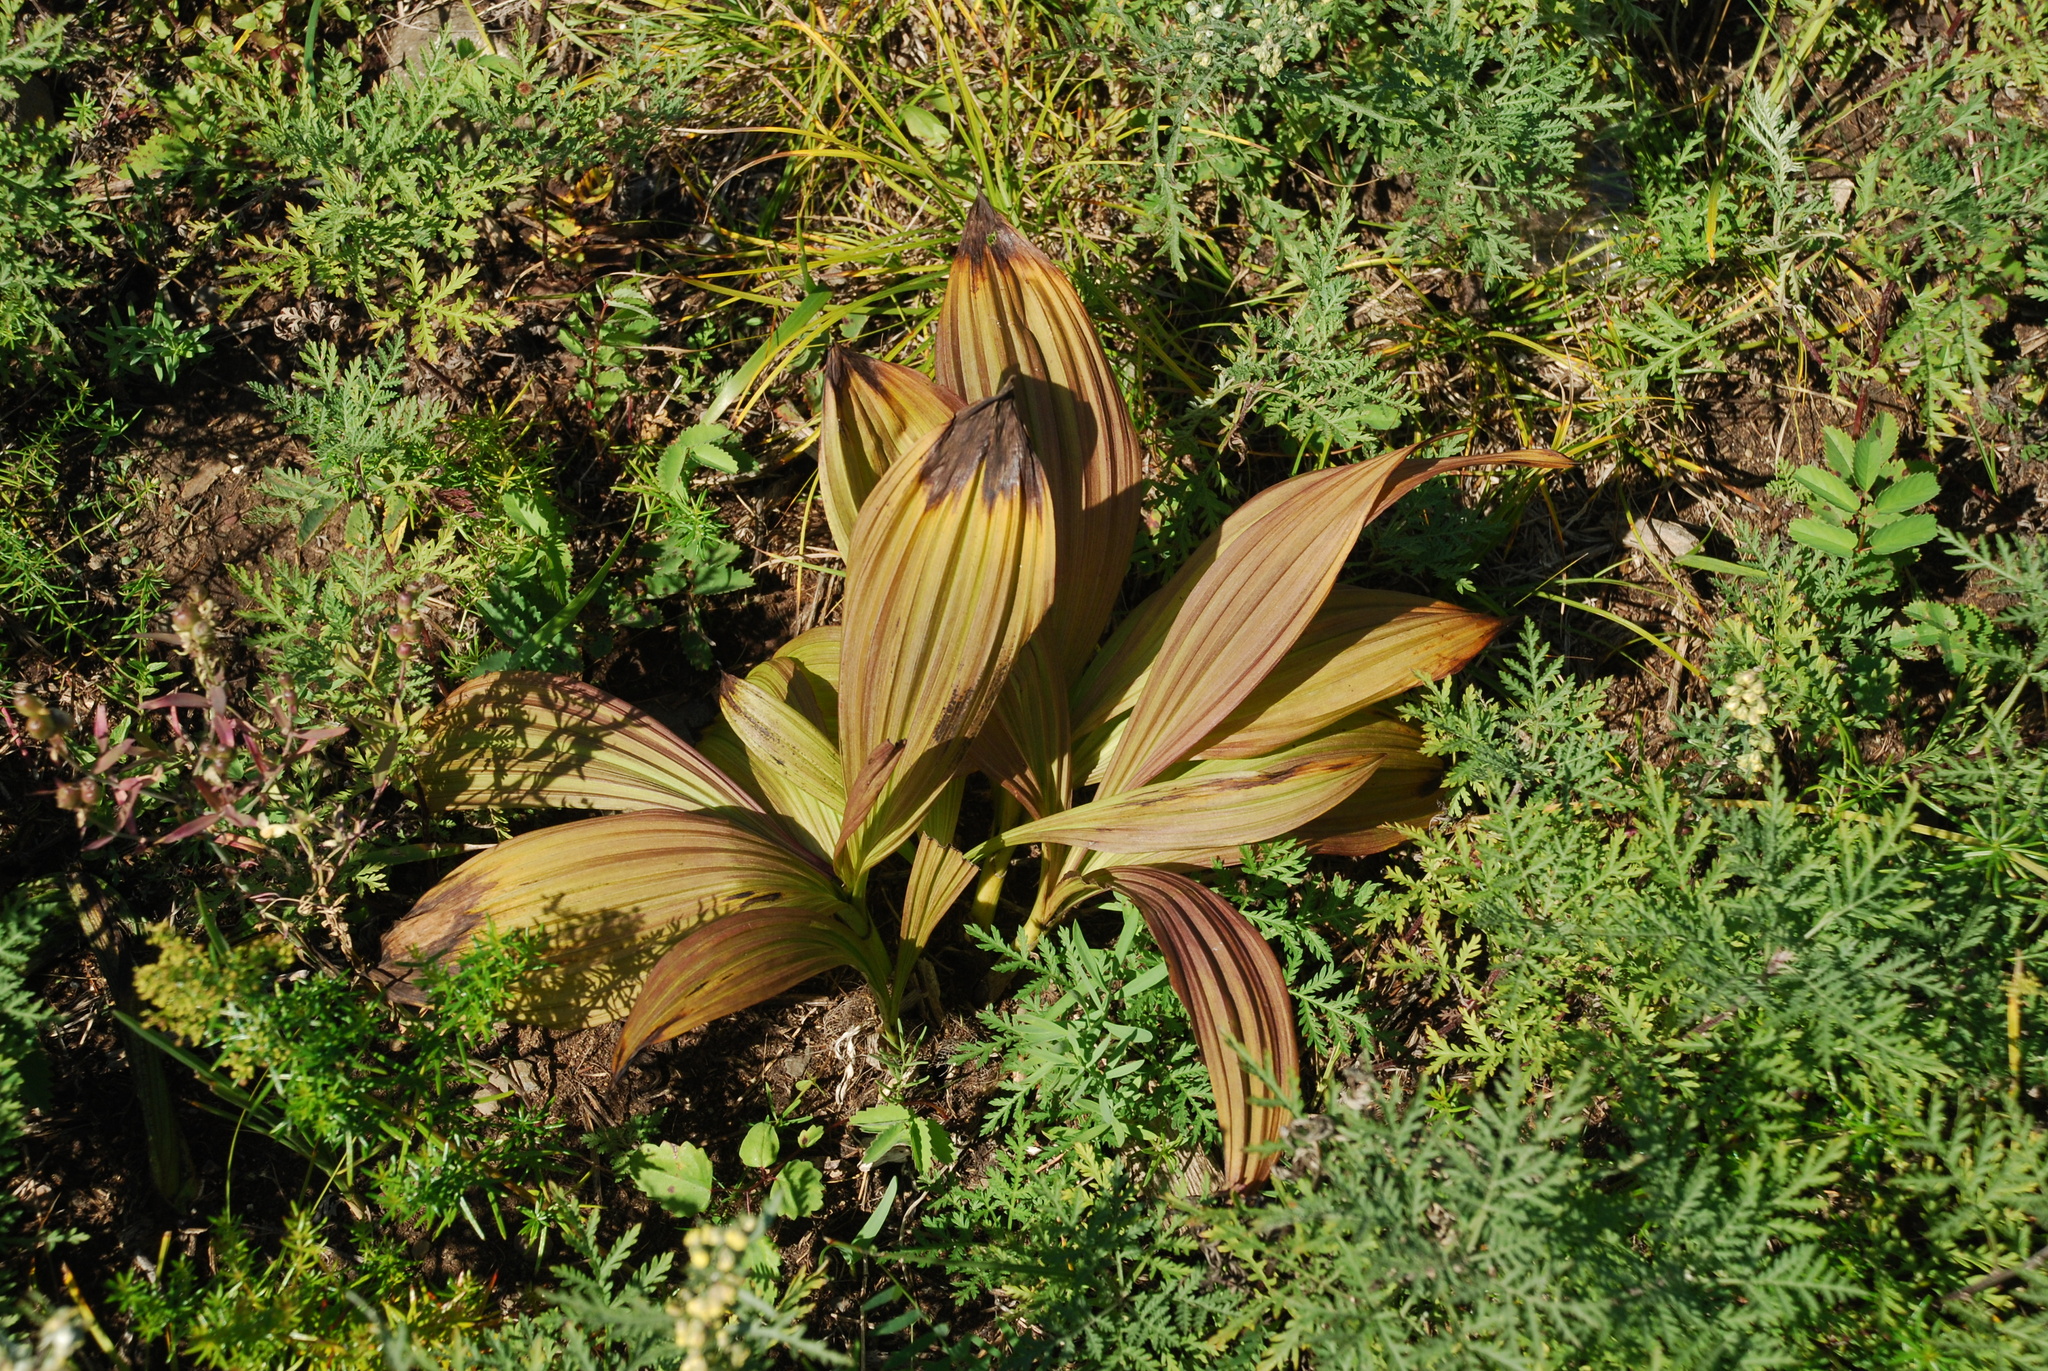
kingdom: Plantae
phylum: Tracheophyta
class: Liliopsida
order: Liliales
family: Melanthiaceae
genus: Veratrum
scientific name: Veratrum nigrum
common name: Black veratrum
